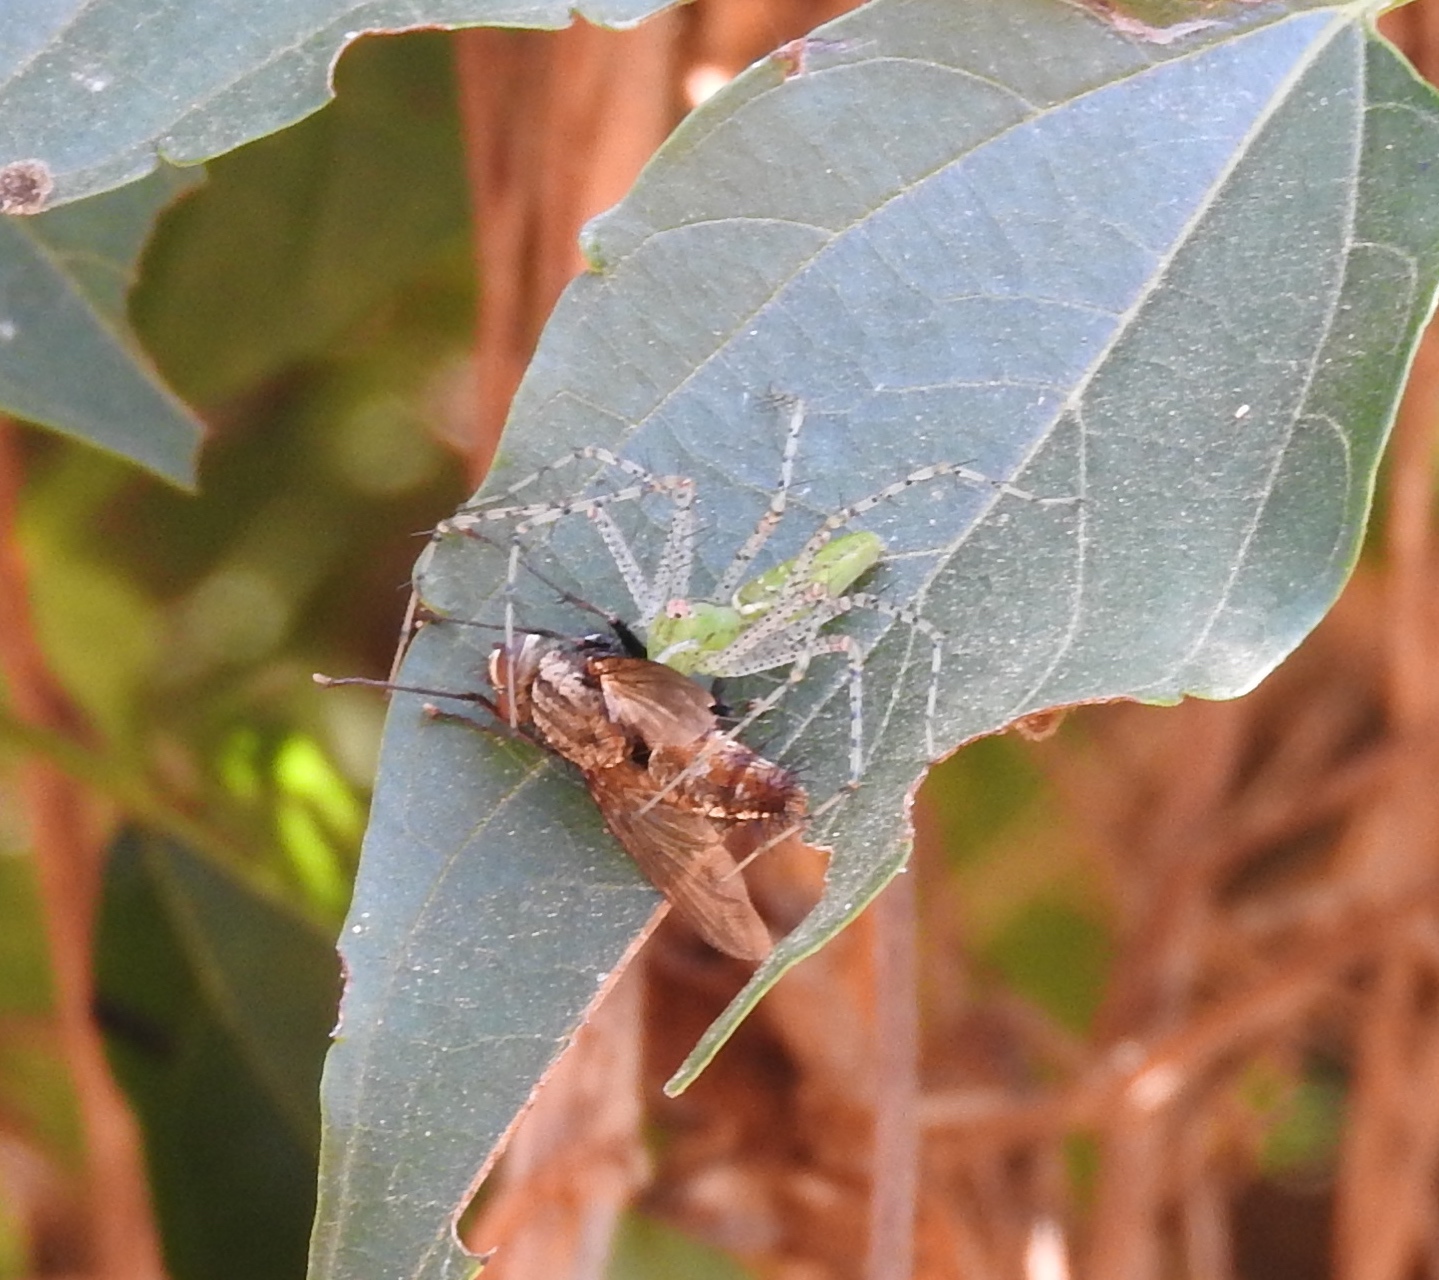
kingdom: Animalia
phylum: Arthropoda
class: Arachnida
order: Araneae
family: Oxyopidae
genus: Peucetia
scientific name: Peucetia viridans
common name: Lynx spiders
